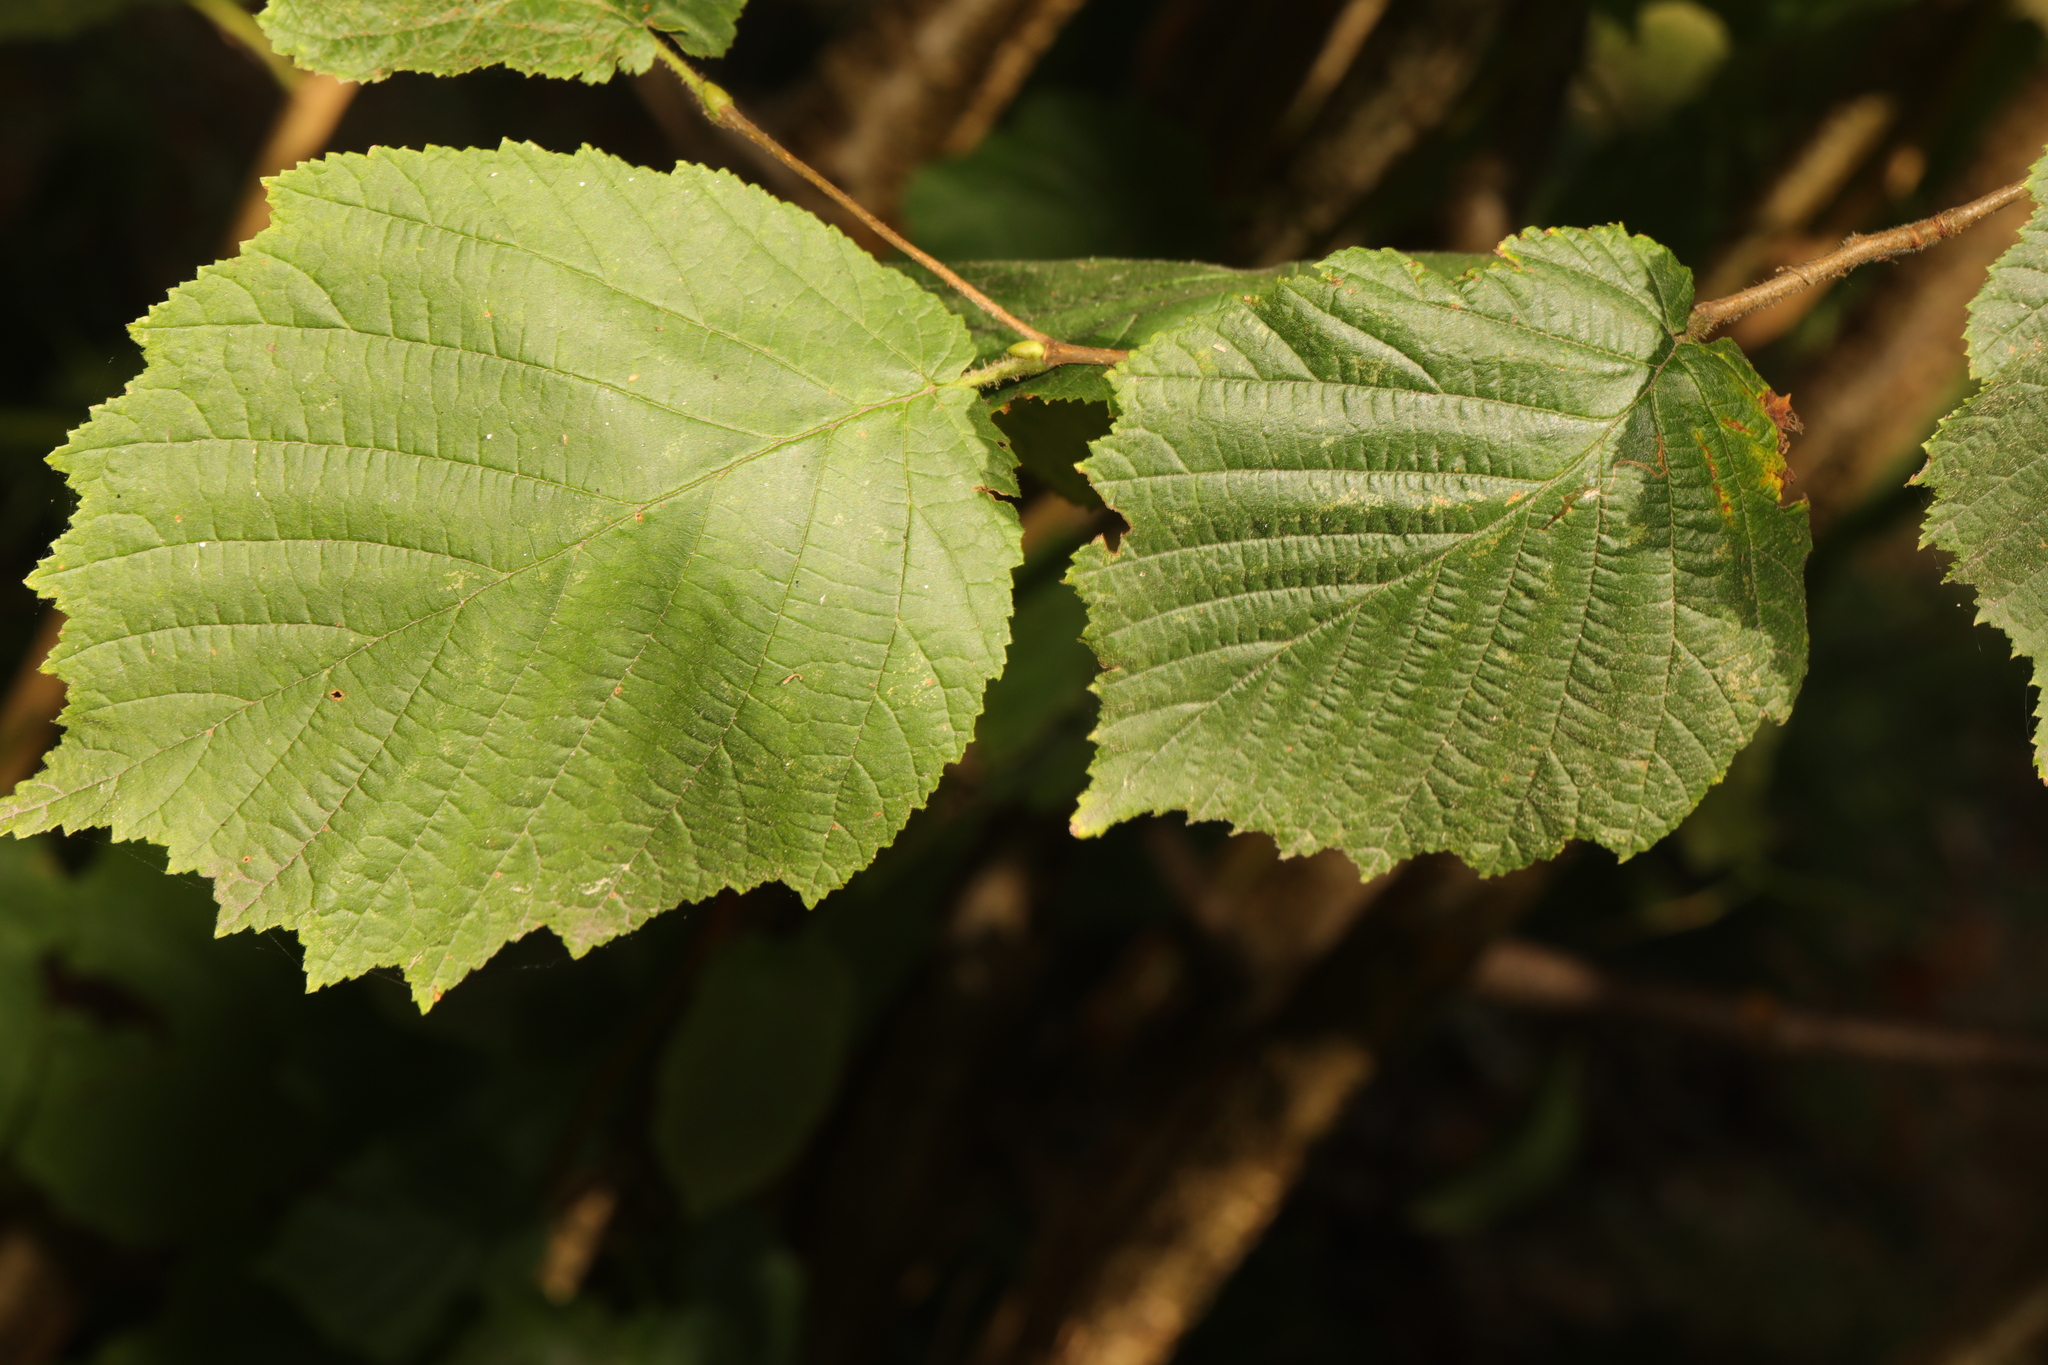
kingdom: Plantae
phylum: Tracheophyta
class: Magnoliopsida
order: Fagales
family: Betulaceae
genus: Corylus
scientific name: Corylus avellana
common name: European hazel
